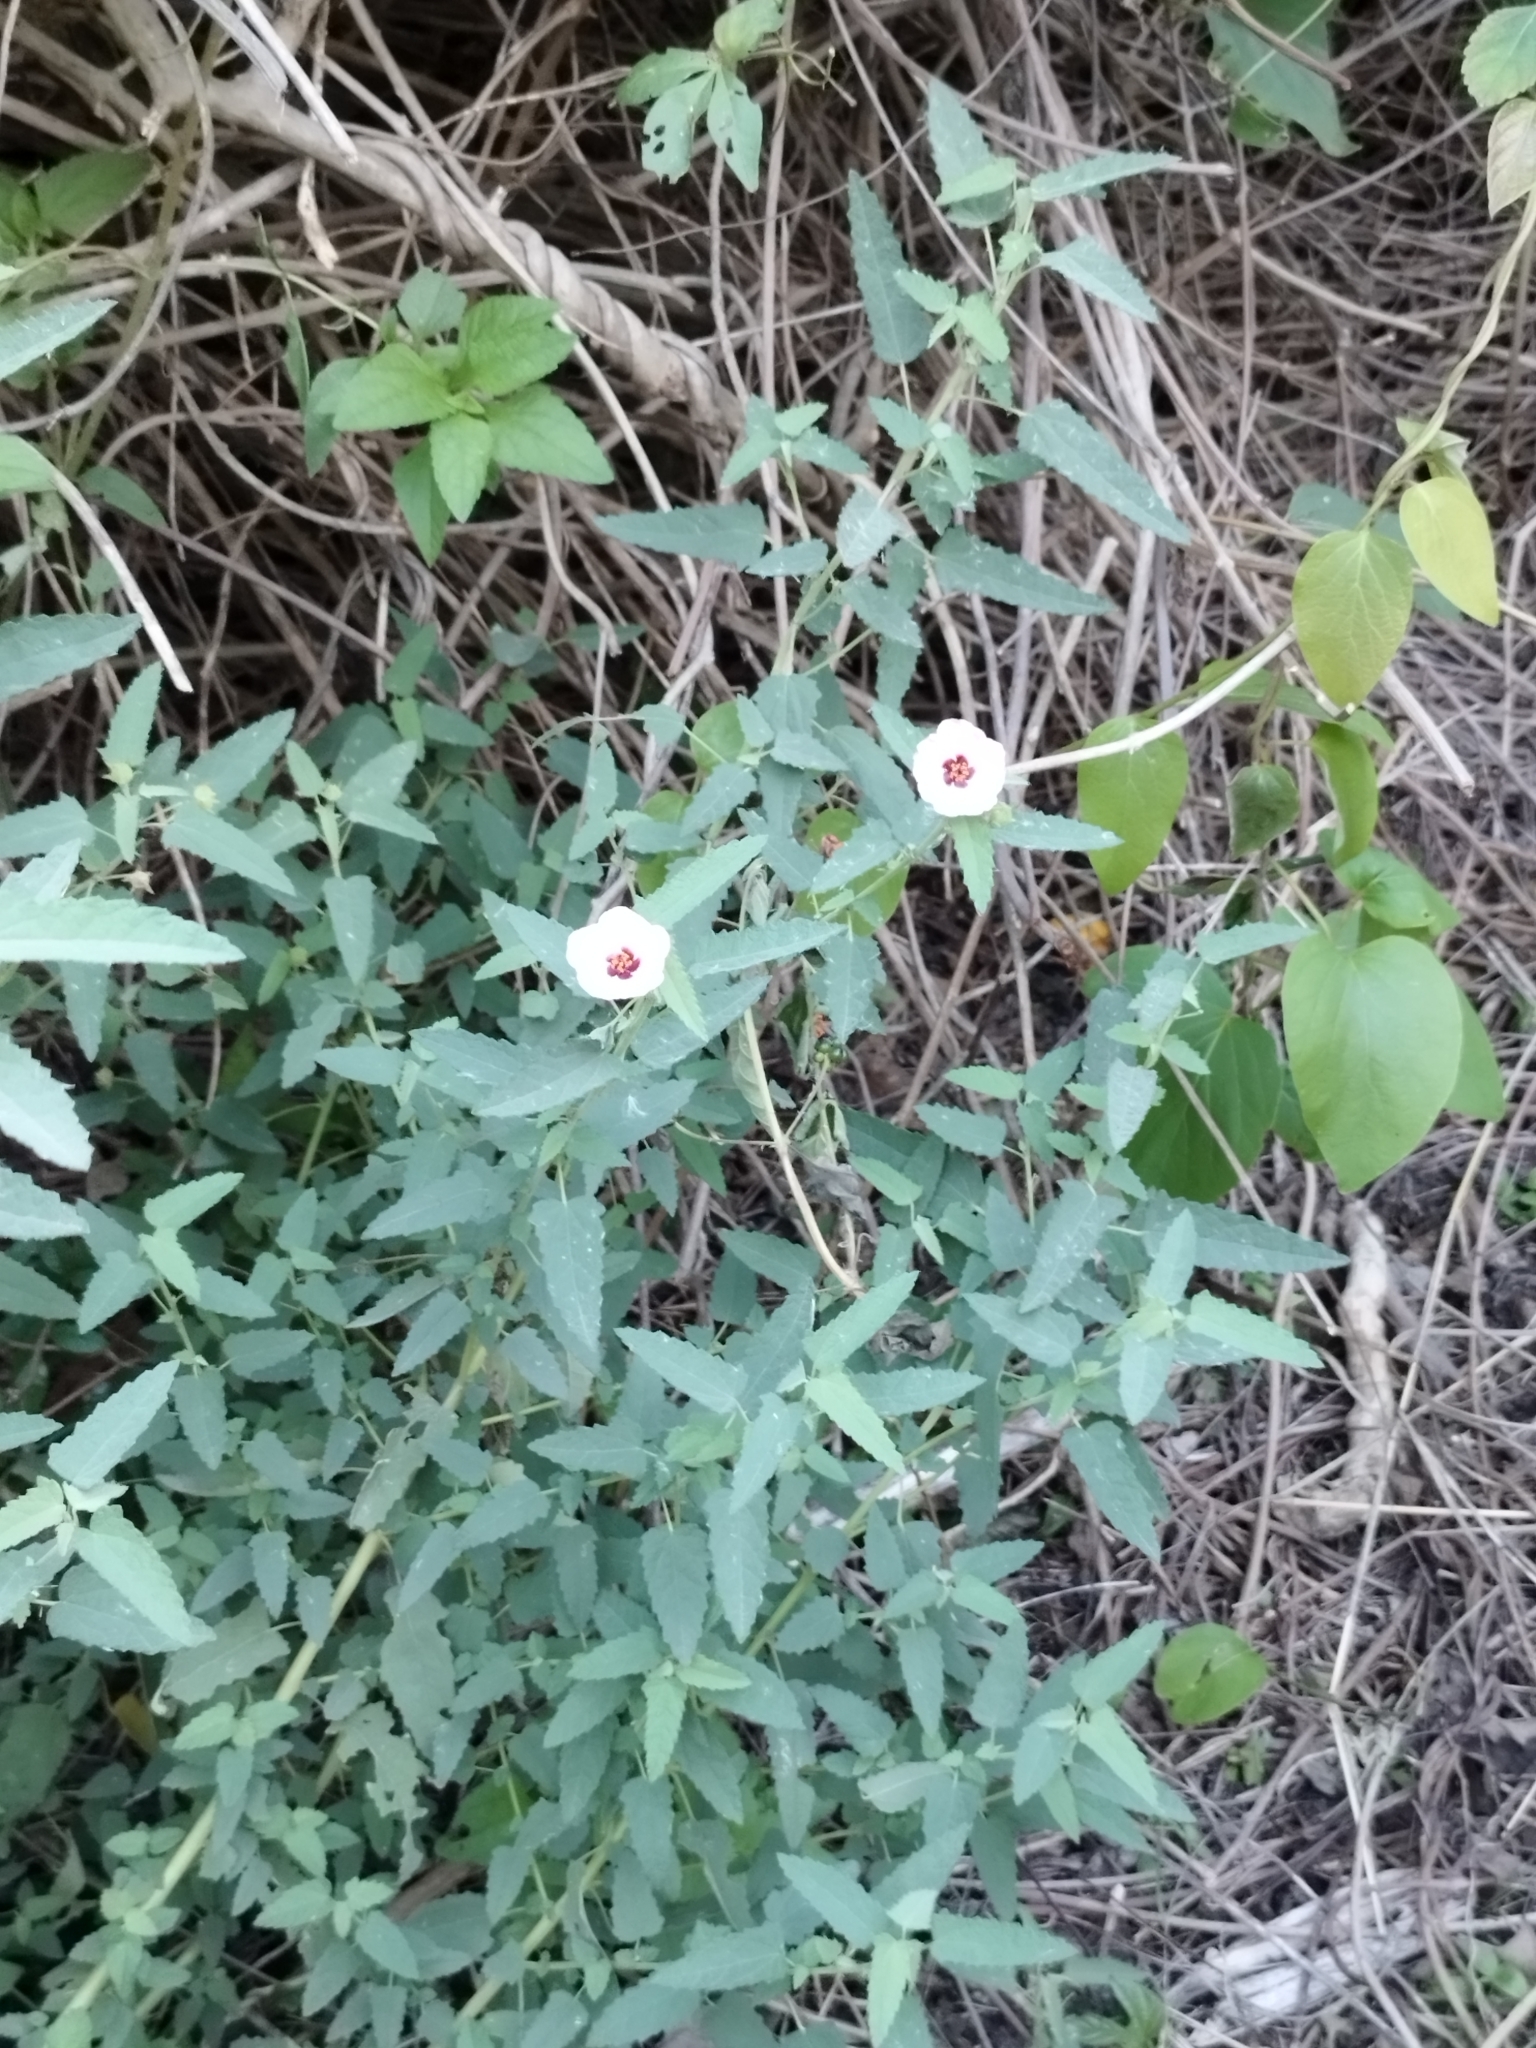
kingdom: Plantae
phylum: Tracheophyta
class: Magnoliopsida
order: Malvales
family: Malvaceae
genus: Pavonia
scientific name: Pavonia hastata
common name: Spearleaf swampmallow
